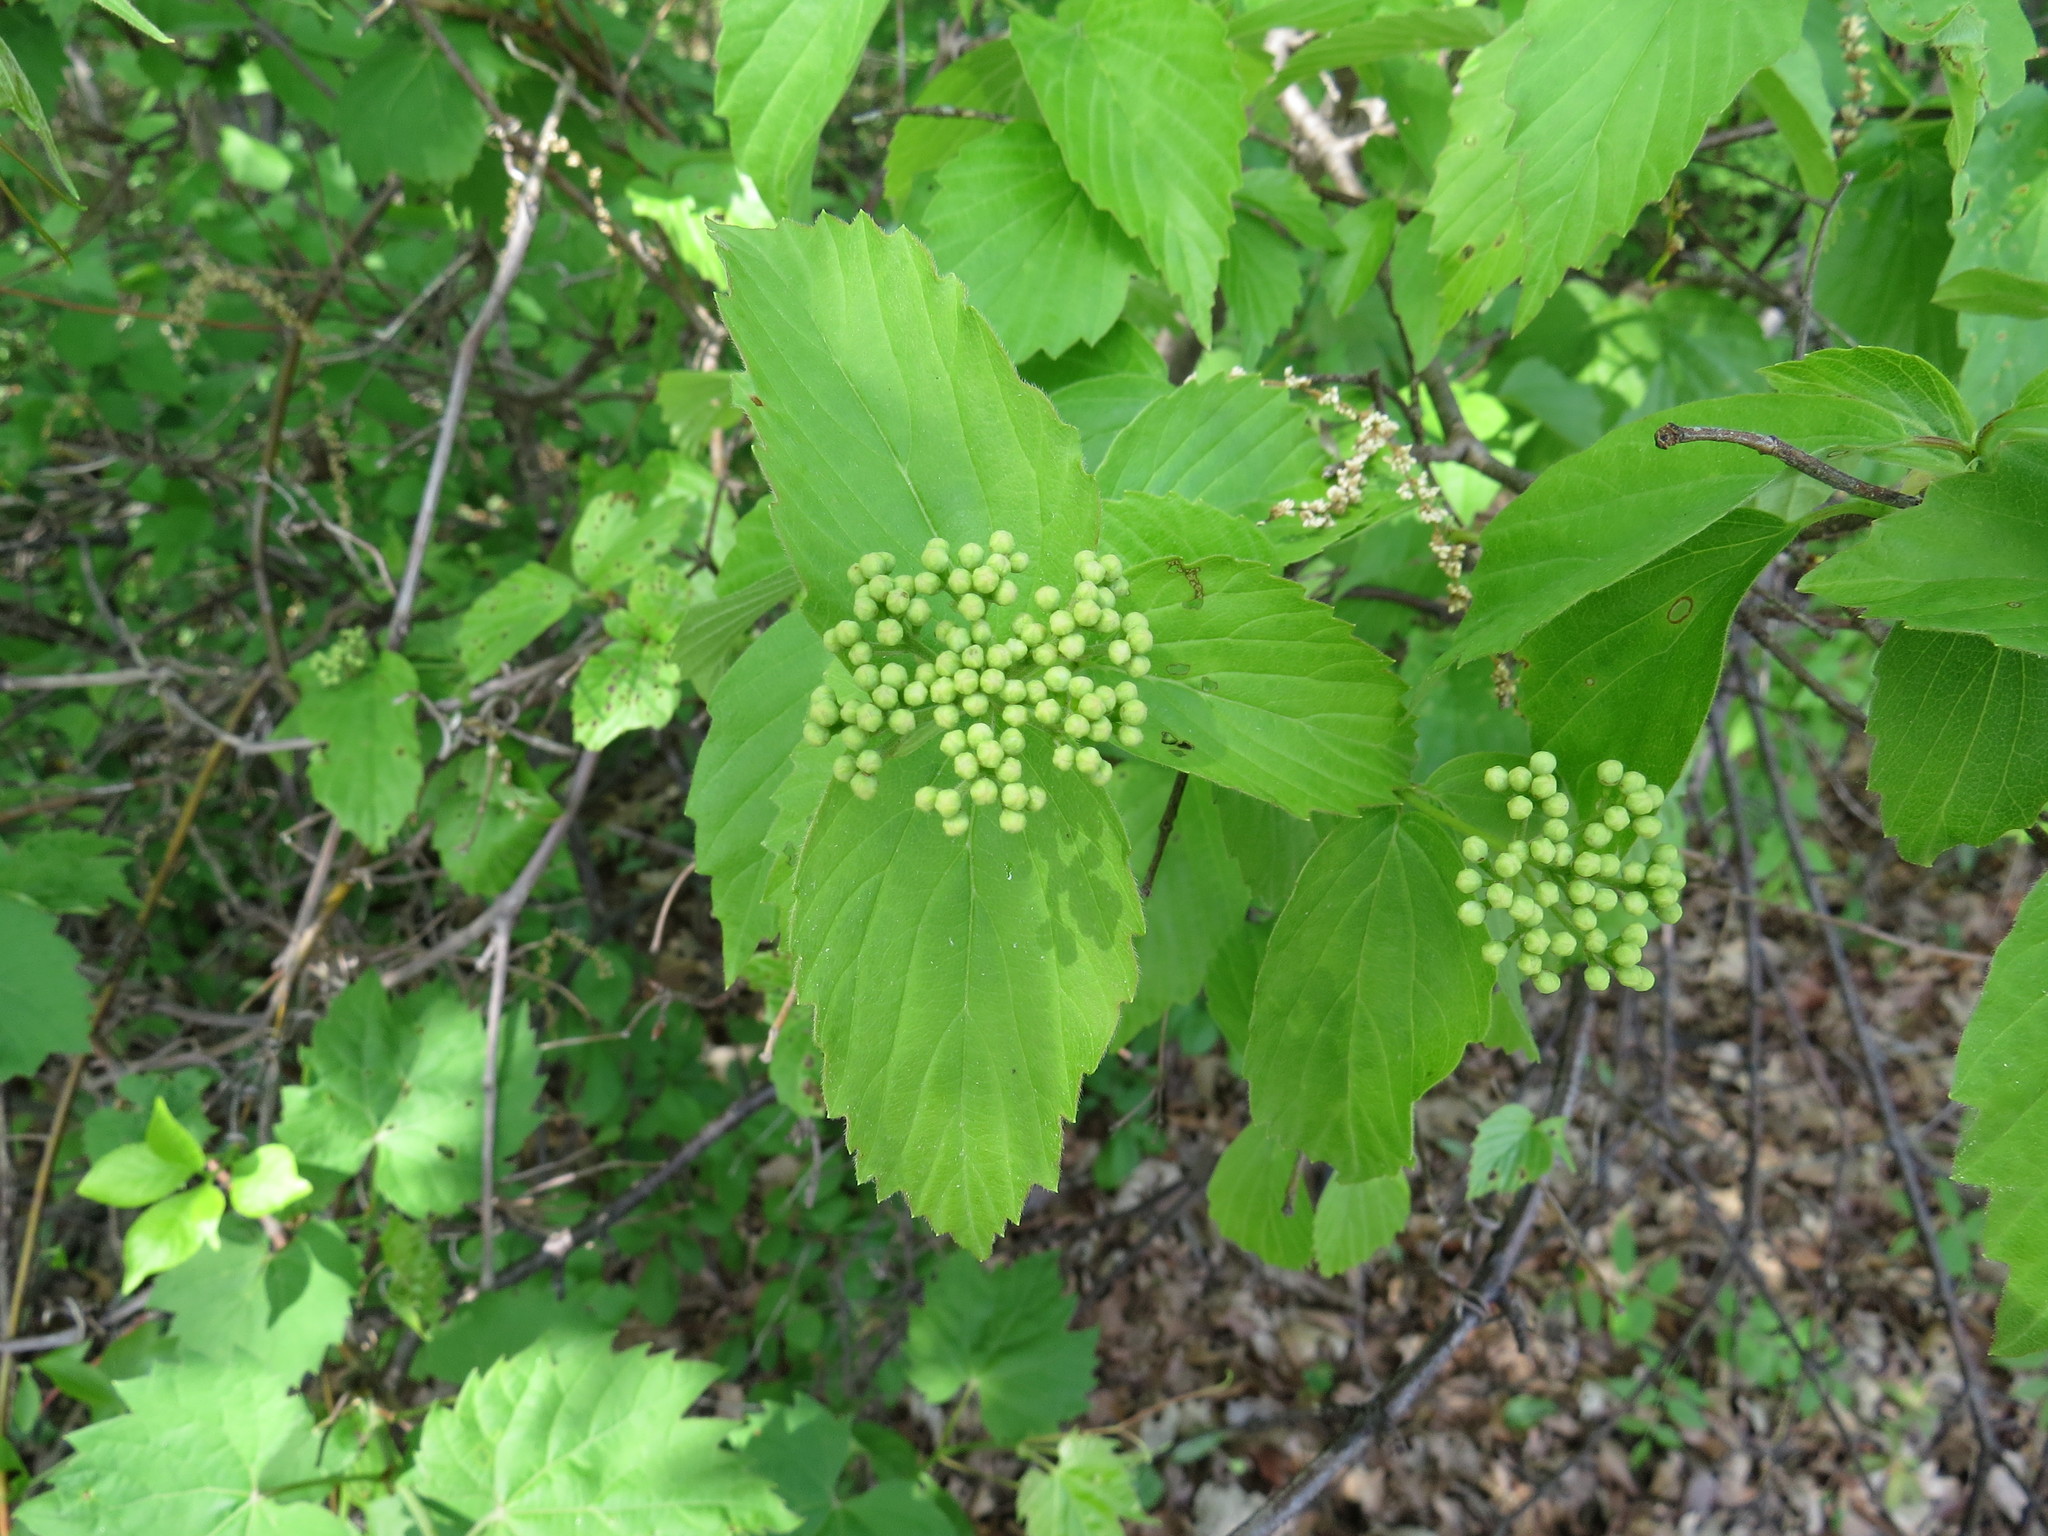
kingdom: Plantae
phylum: Tracheophyta
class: Magnoliopsida
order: Dipsacales
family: Viburnaceae
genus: Viburnum
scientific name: Viburnum rafinesqueanum
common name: Downy arrow-wood
